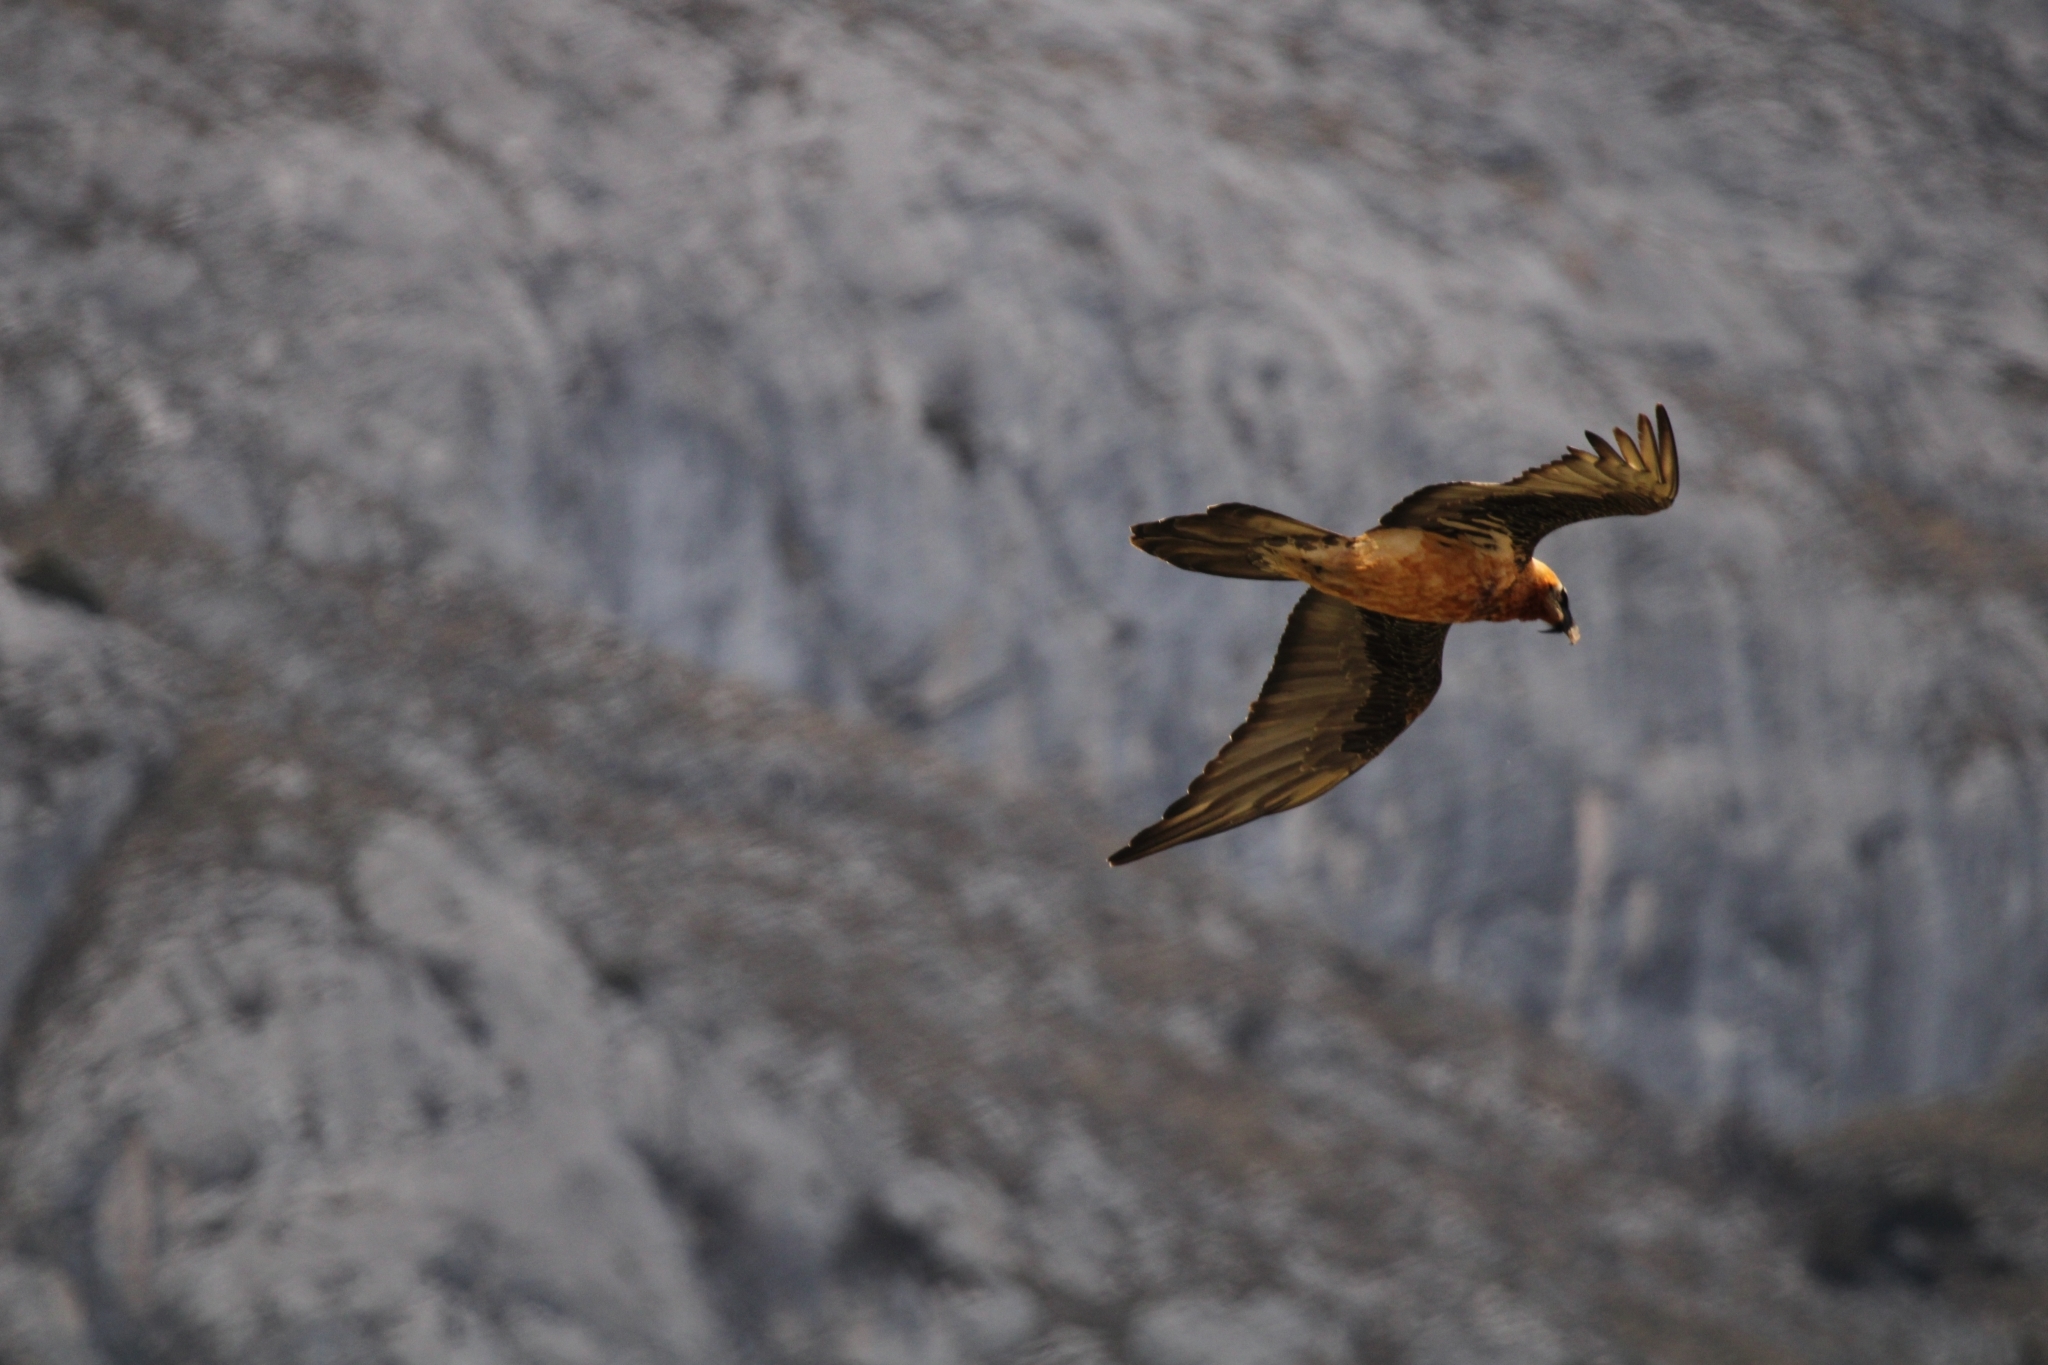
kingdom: Animalia
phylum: Chordata
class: Aves
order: Accipitriformes
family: Accipitridae
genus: Gypaetus
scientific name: Gypaetus barbatus
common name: Bearded vulture
